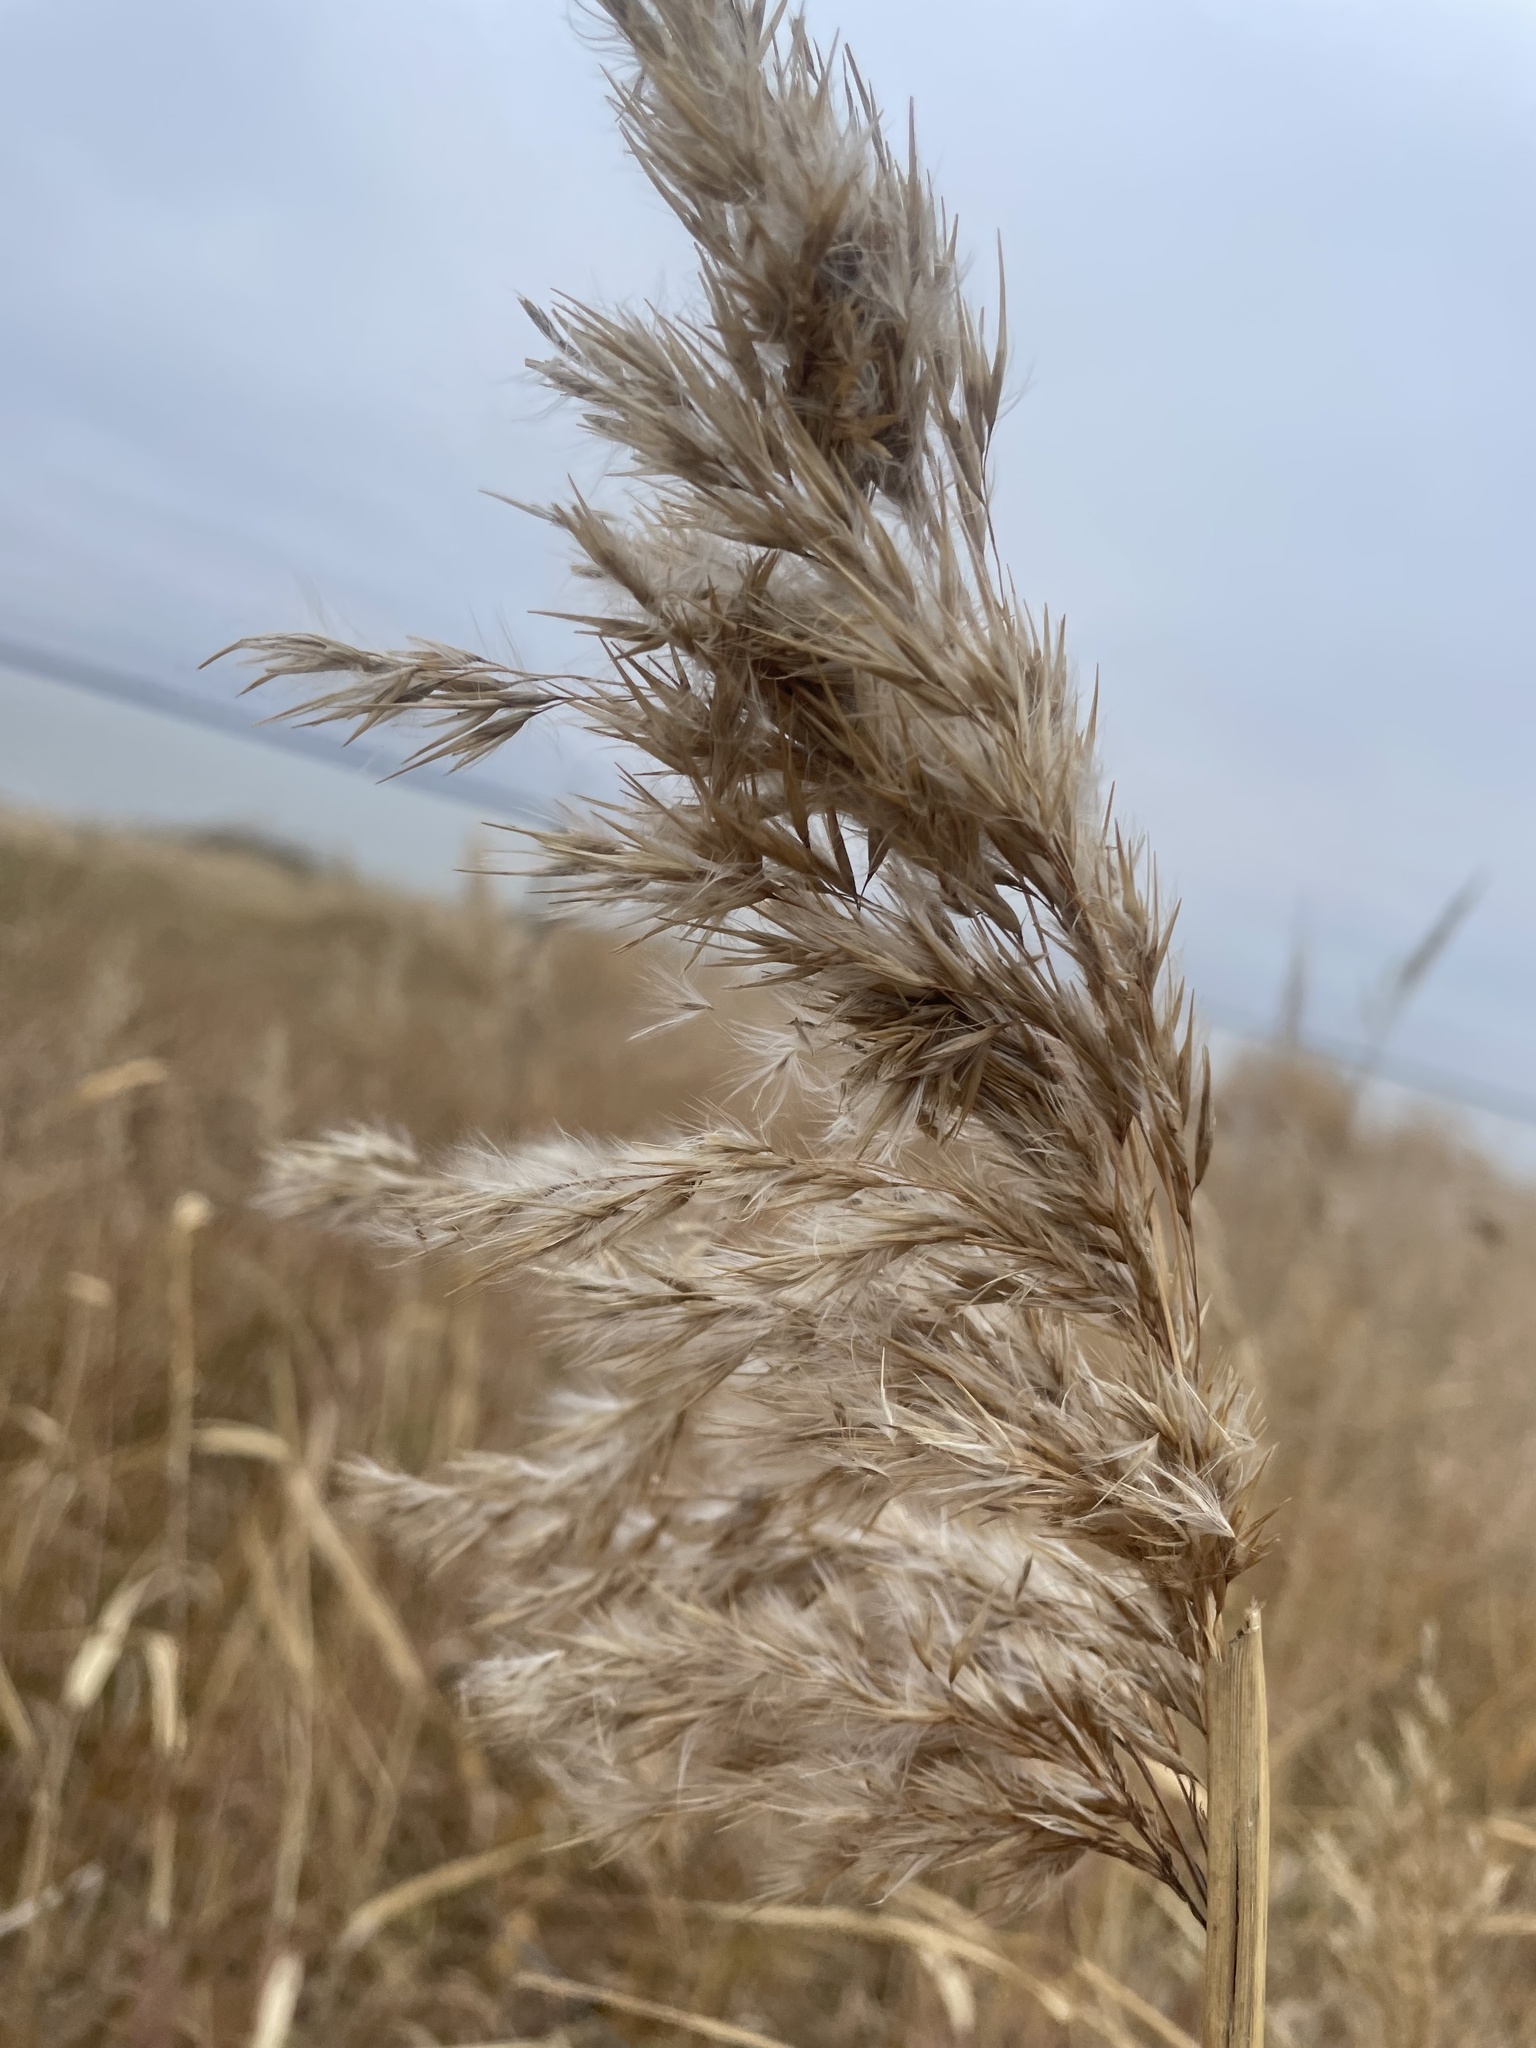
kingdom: Plantae
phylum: Tracheophyta
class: Liliopsida
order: Poales
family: Poaceae
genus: Phragmites
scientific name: Phragmites australis
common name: Common reed
